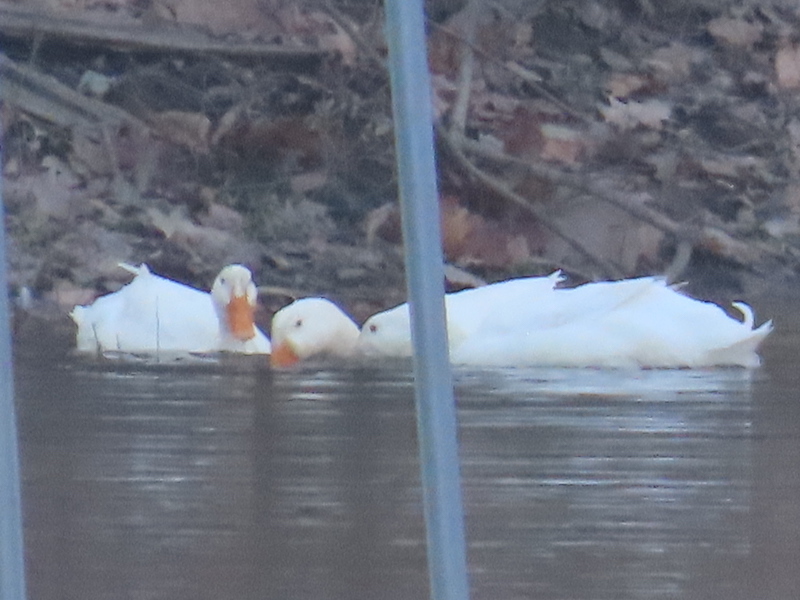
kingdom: Animalia
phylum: Chordata
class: Aves
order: Anseriformes
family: Anatidae
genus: Anas
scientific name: Anas platyrhynchos
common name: Mallard
